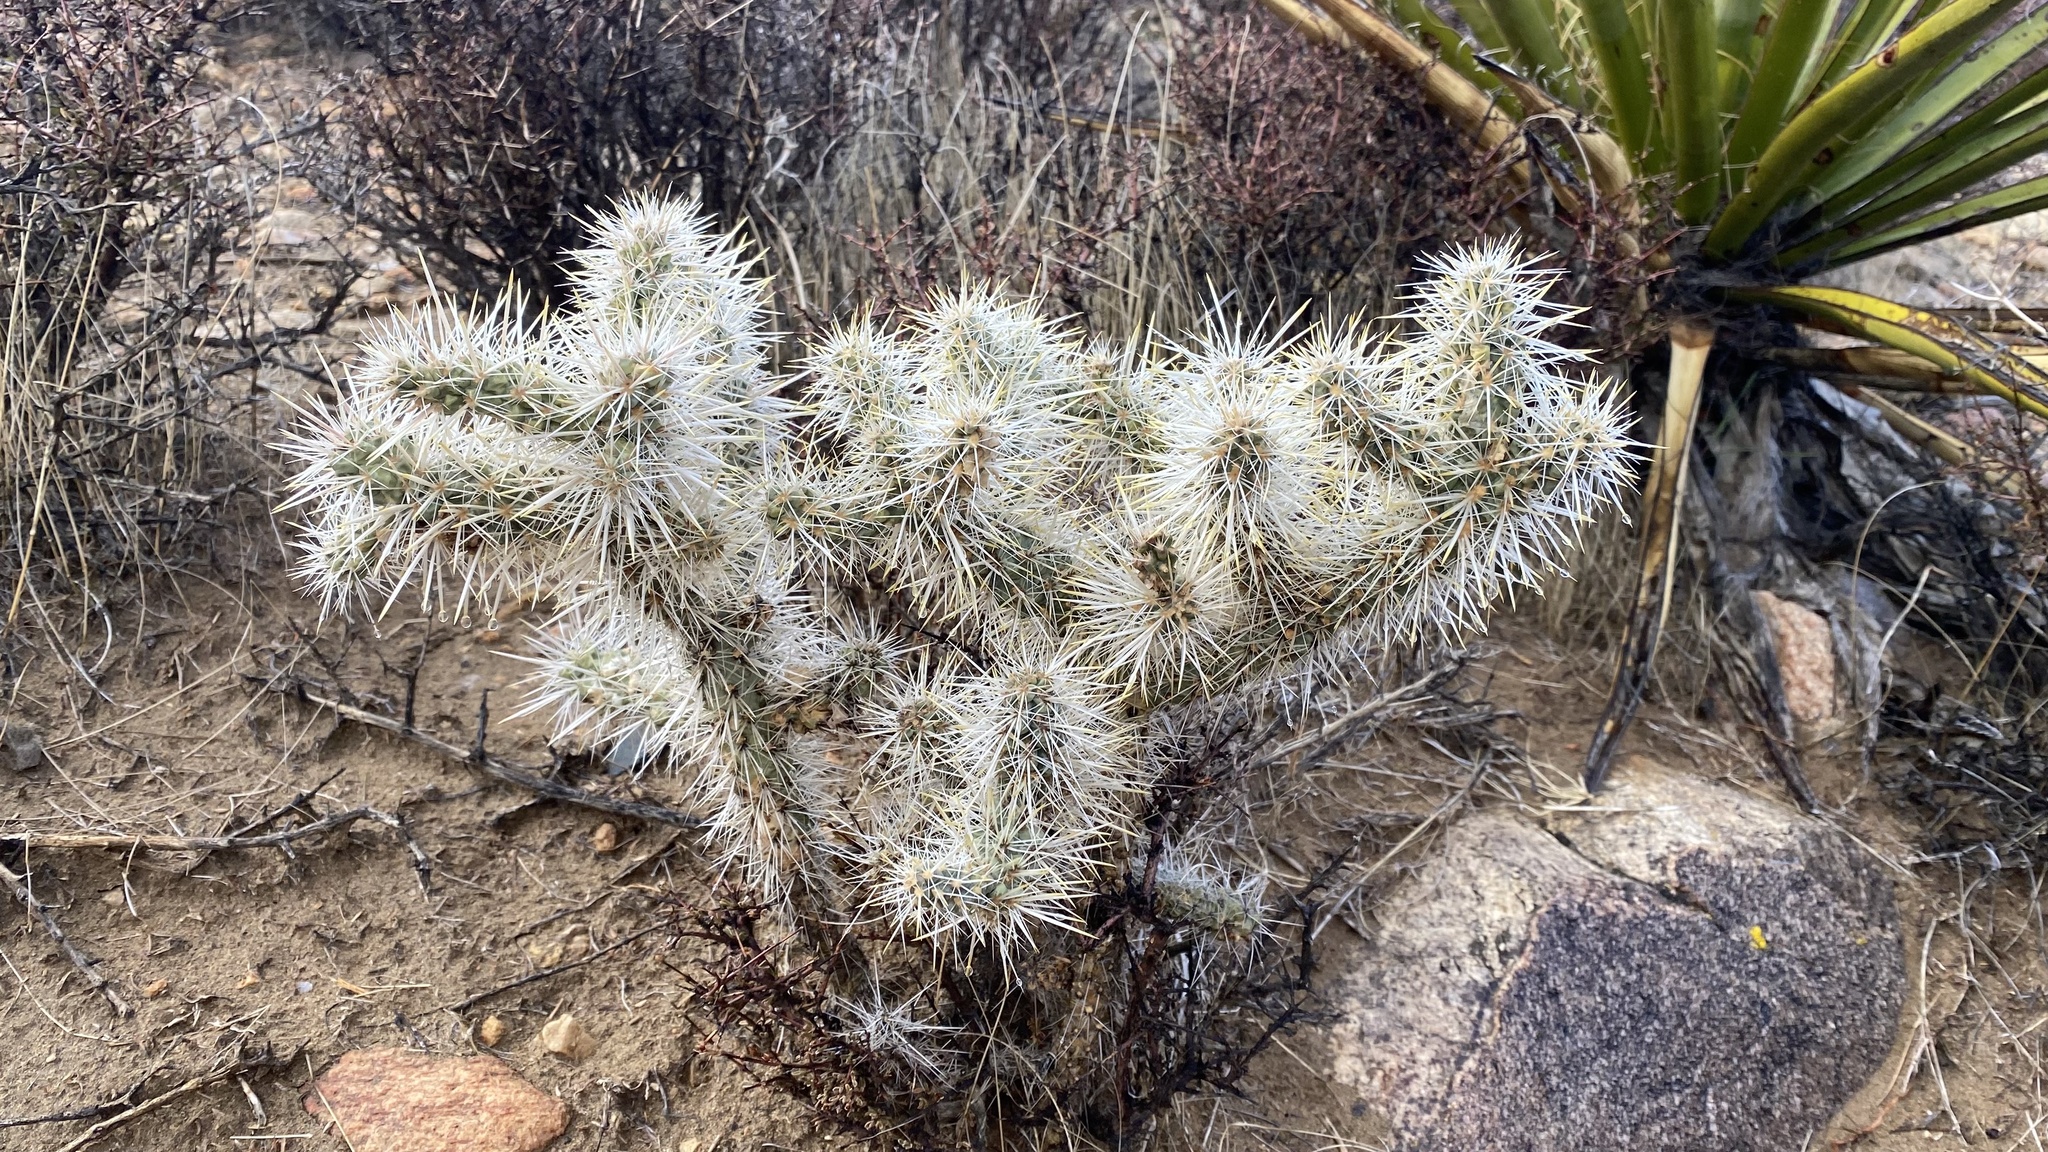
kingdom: Plantae
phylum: Tracheophyta
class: Magnoliopsida
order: Caryophyllales
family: Cactaceae
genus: Cylindropuntia
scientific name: Cylindropuntia echinocarpa
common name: Ground cholla
